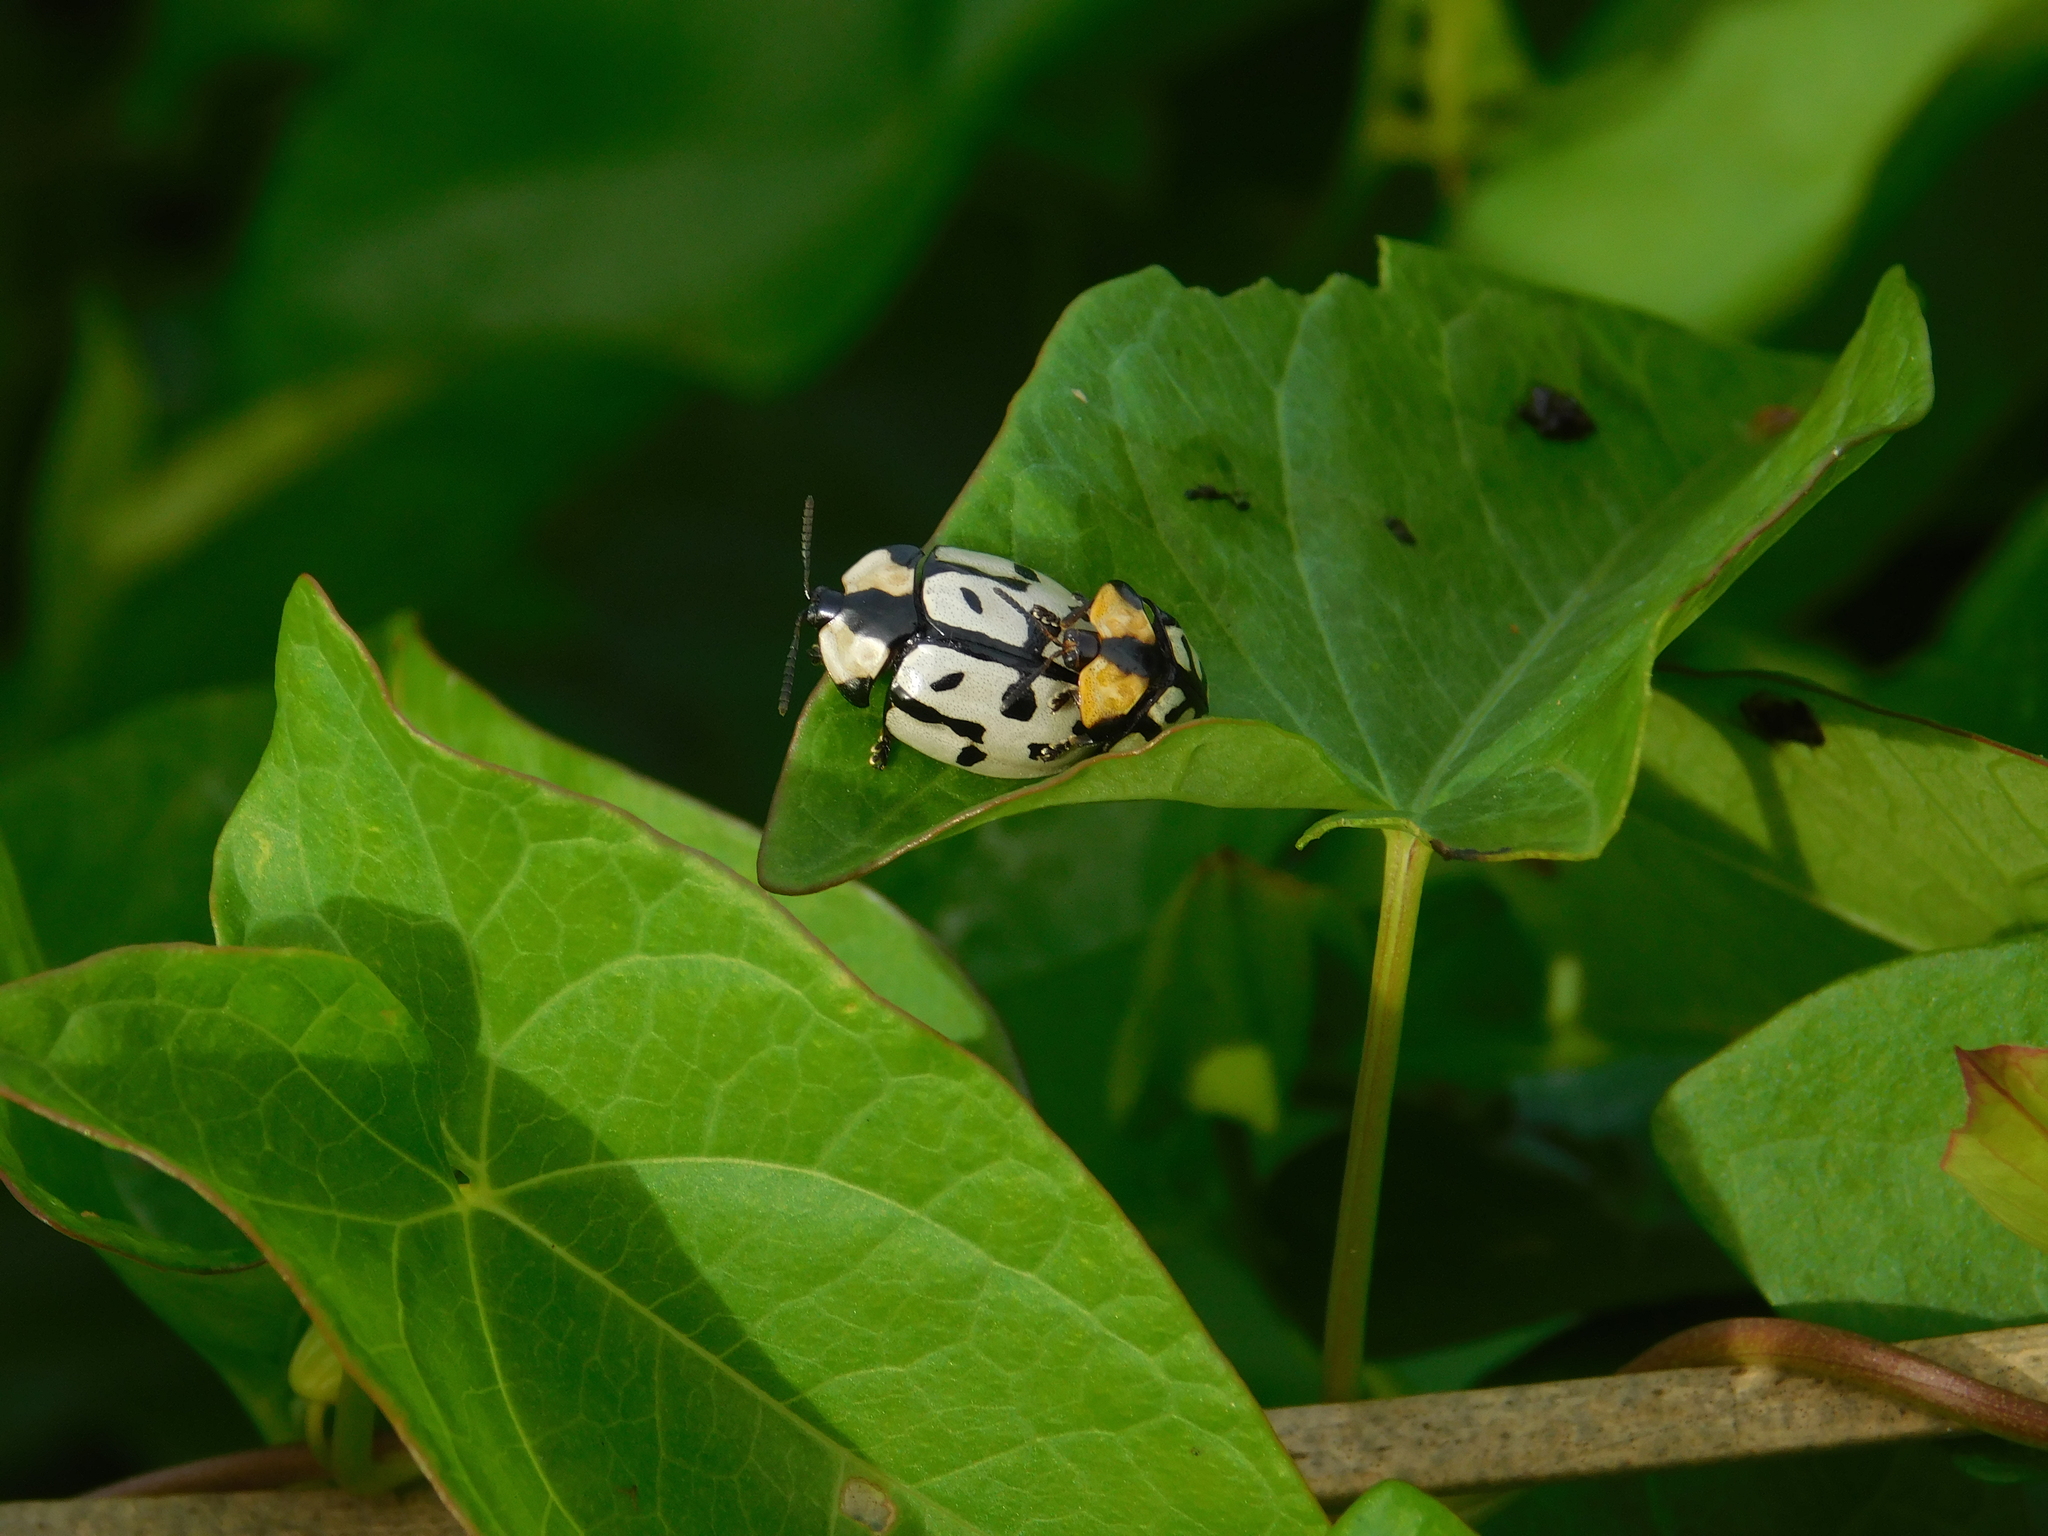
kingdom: Animalia
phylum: Arthropoda
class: Insecta
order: Coleoptera
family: Chrysomelidae
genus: Zatrephina
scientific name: Zatrephina sexlunata
